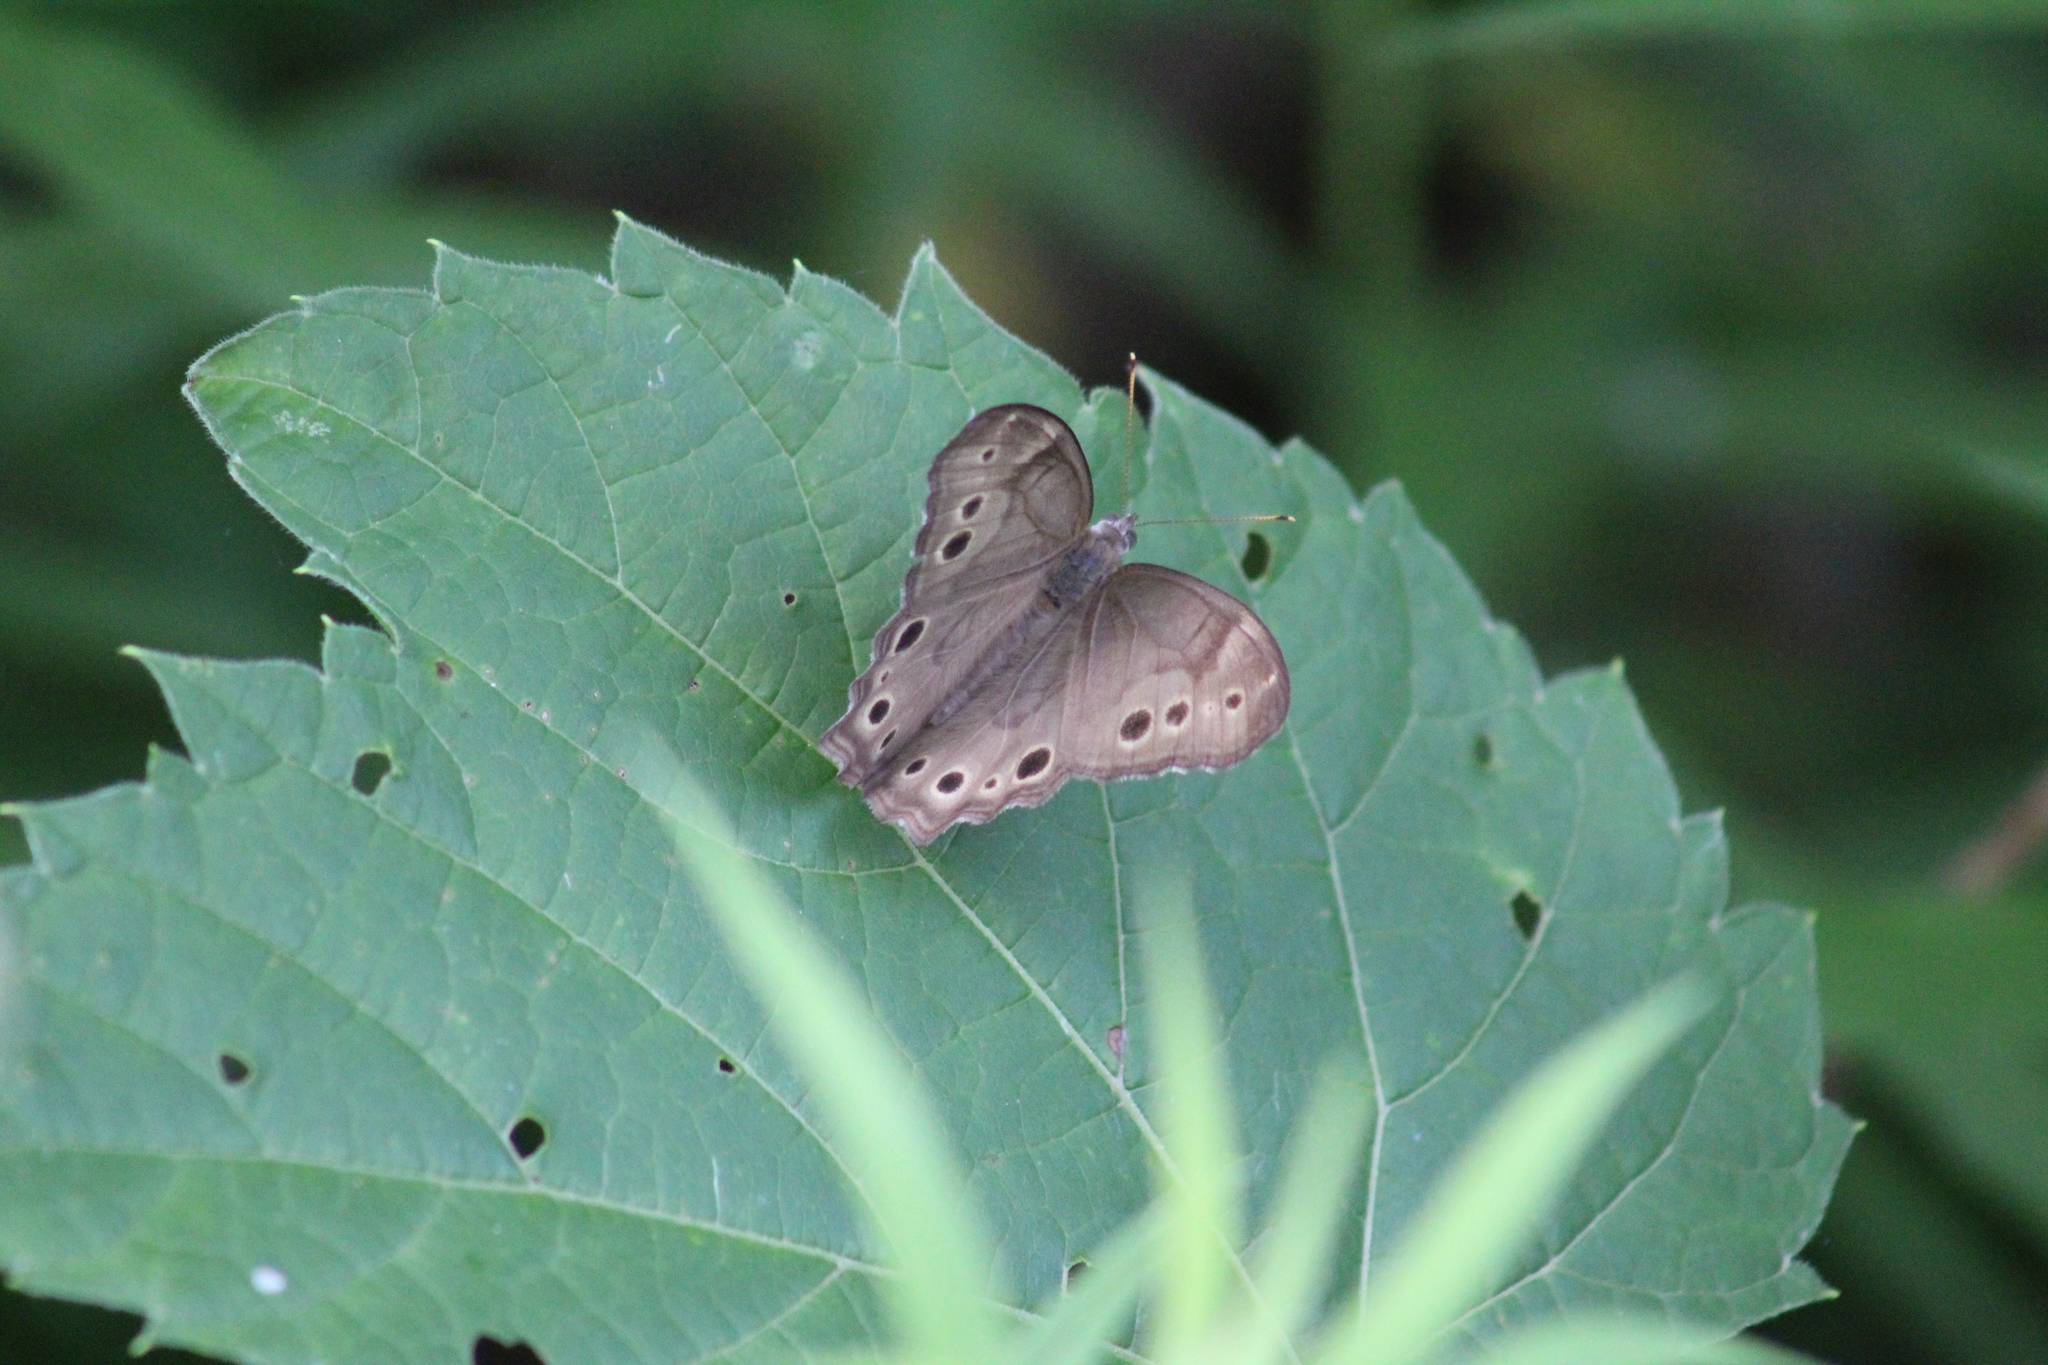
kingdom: Animalia
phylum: Arthropoda
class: Insecta
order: Lepidoptera
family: Nymphalidae
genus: Lethe
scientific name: Lethe anthedon
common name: Northern pearly-eye
